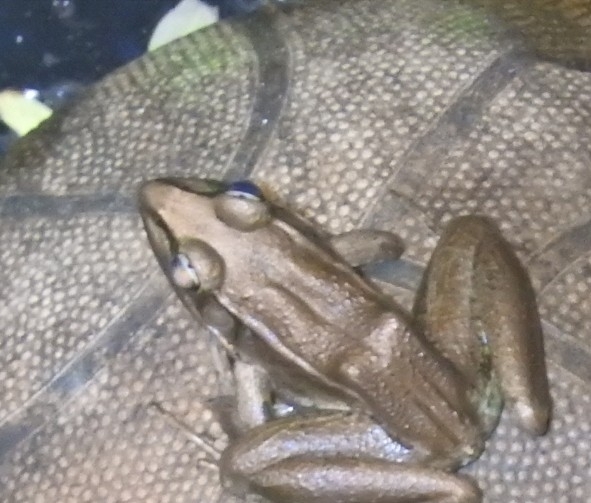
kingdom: Animalia
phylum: Chordata
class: Amphibia
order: Anura
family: Ranidae
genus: Lithobates
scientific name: Lithobates vaillanti
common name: Vaillant's frog
